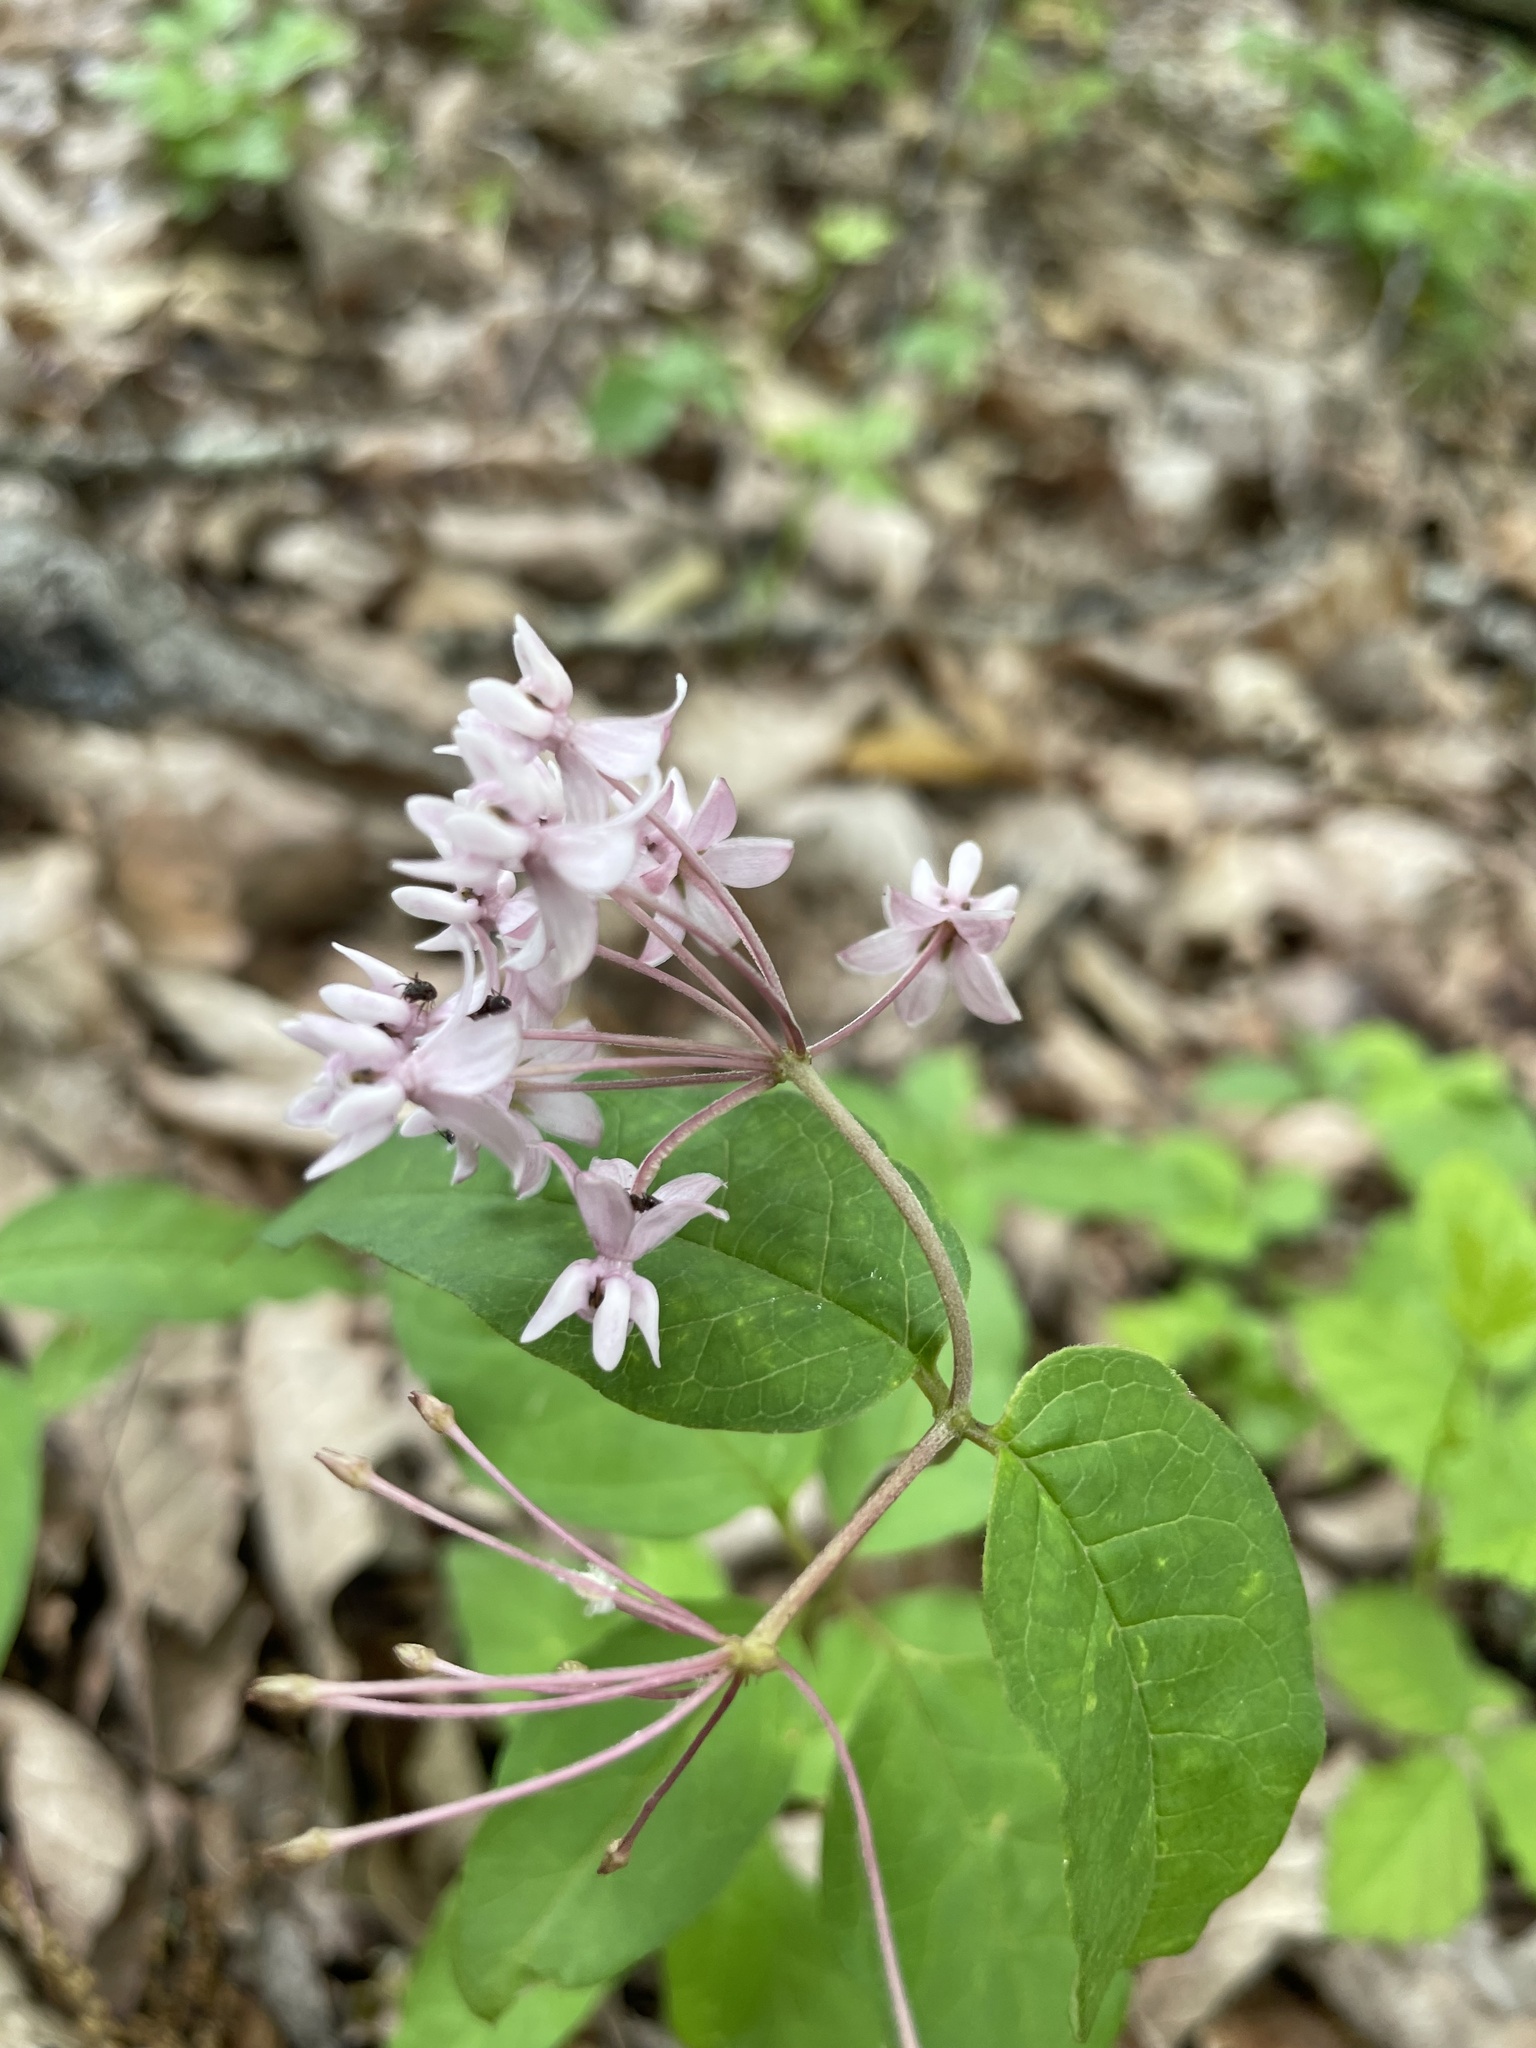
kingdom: Plantae
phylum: Tracheophyta
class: Magnoliopsida
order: Gentianales
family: Apocynaceae
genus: Asclepias
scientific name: Asclepias quadrifolia
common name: Whorled milkweed
